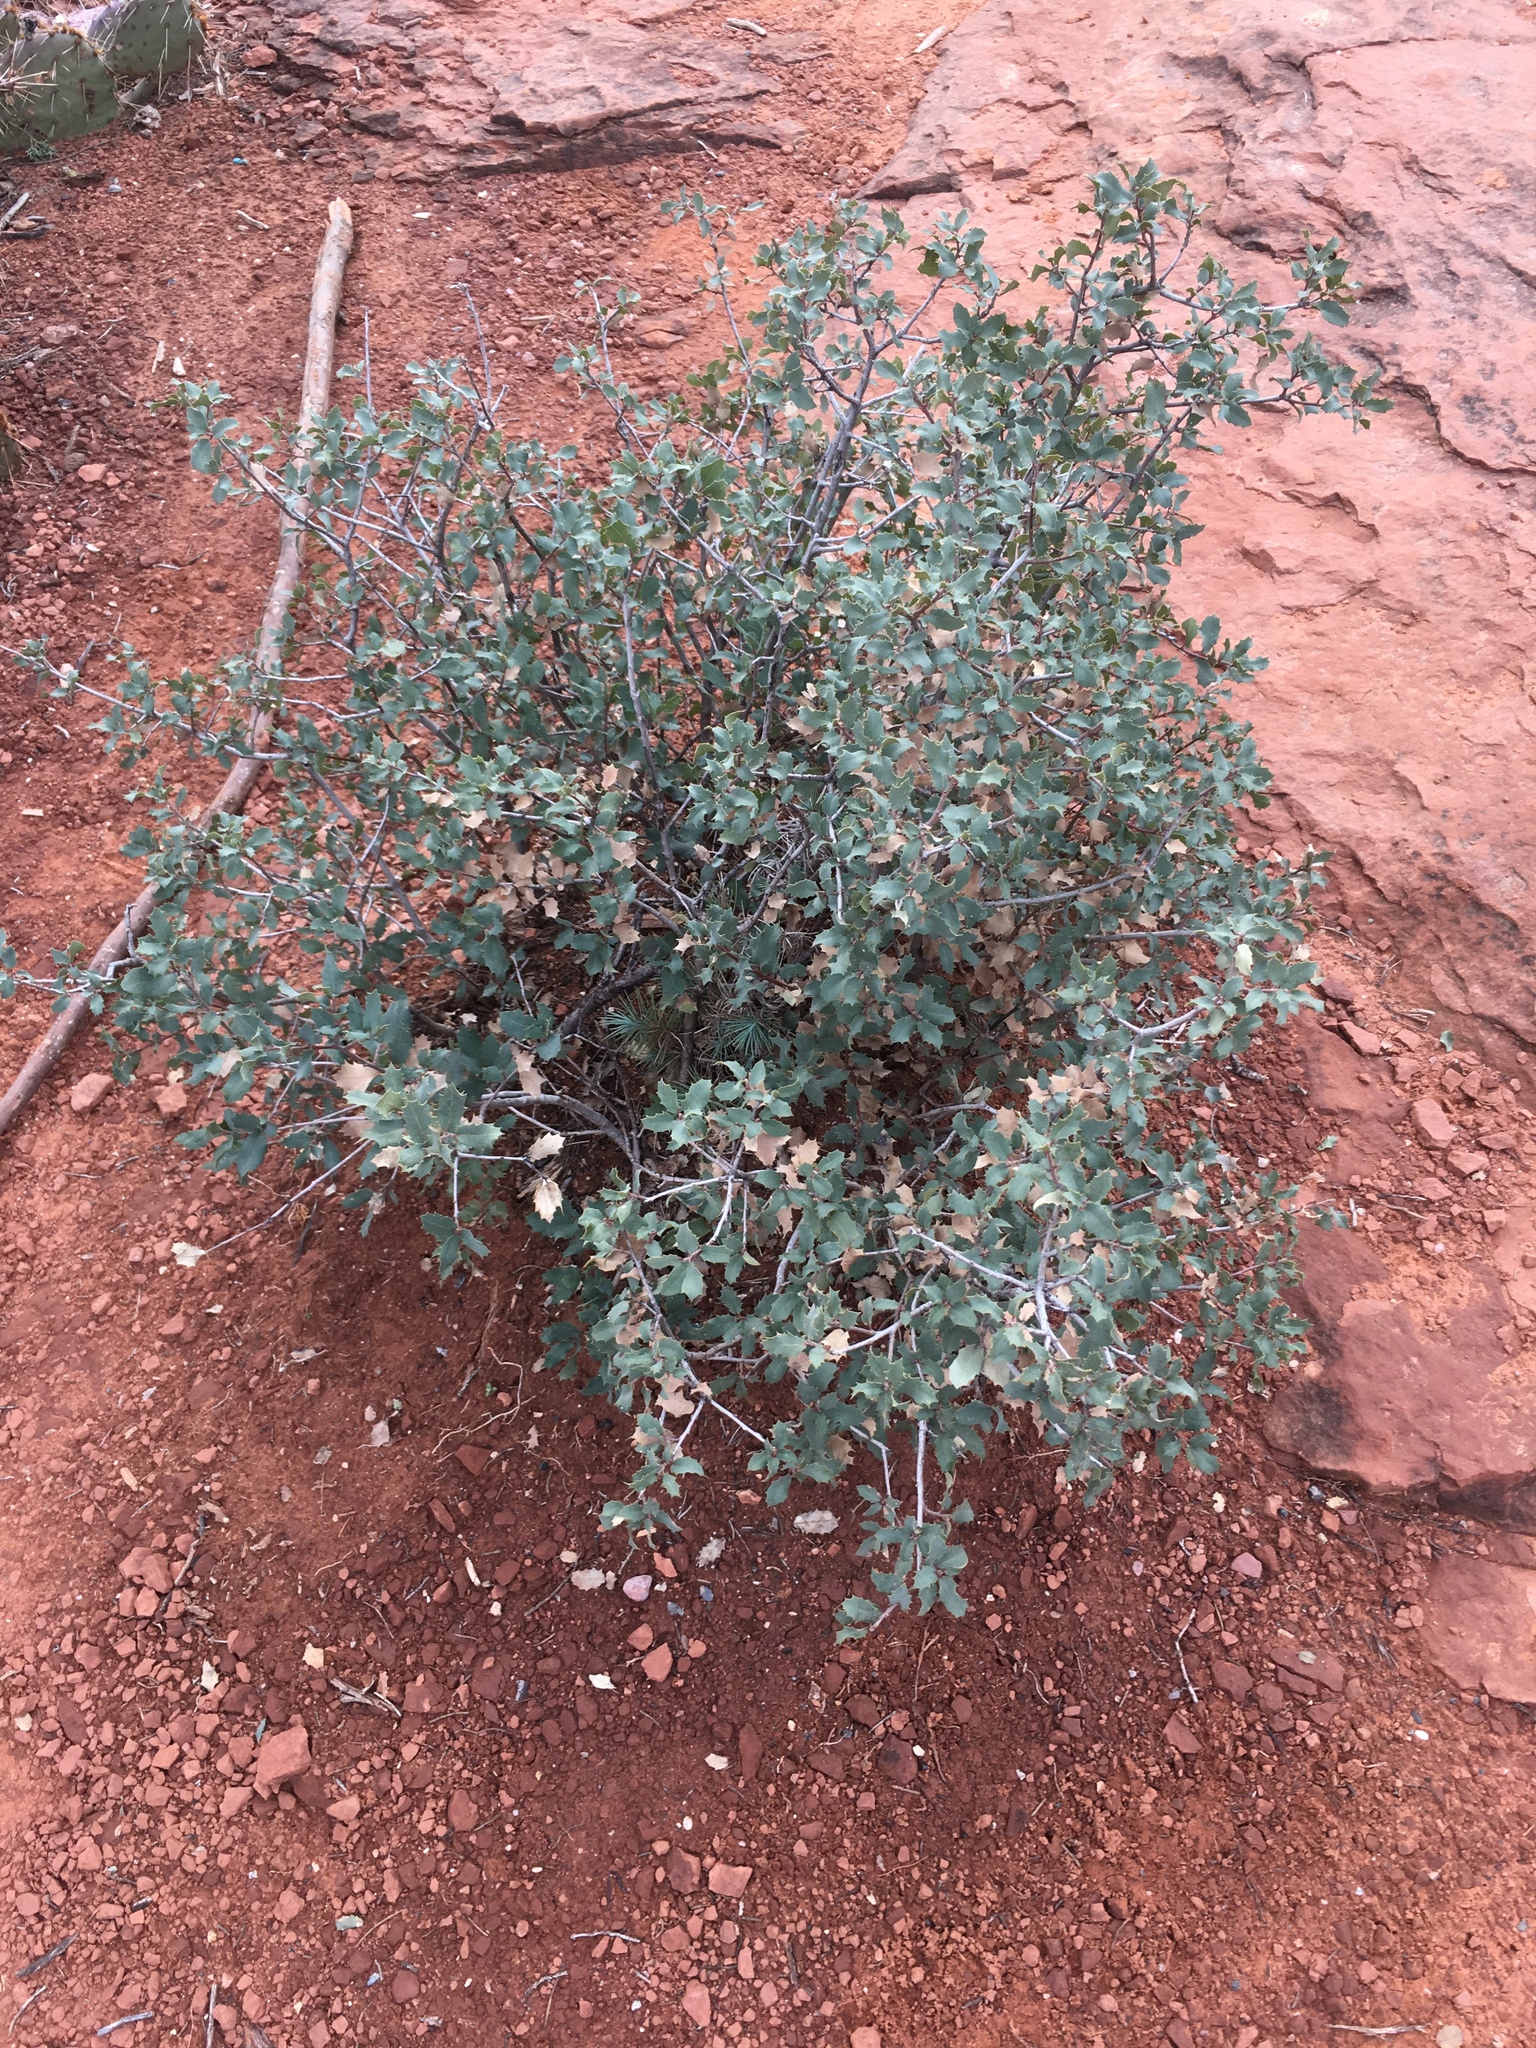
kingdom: Plantae
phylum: Tracheophyta
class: Magnoliopsida
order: Fagales
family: Fagaceae
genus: Quercus
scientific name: Quercus turbinella
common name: Sonoran scrub oak
